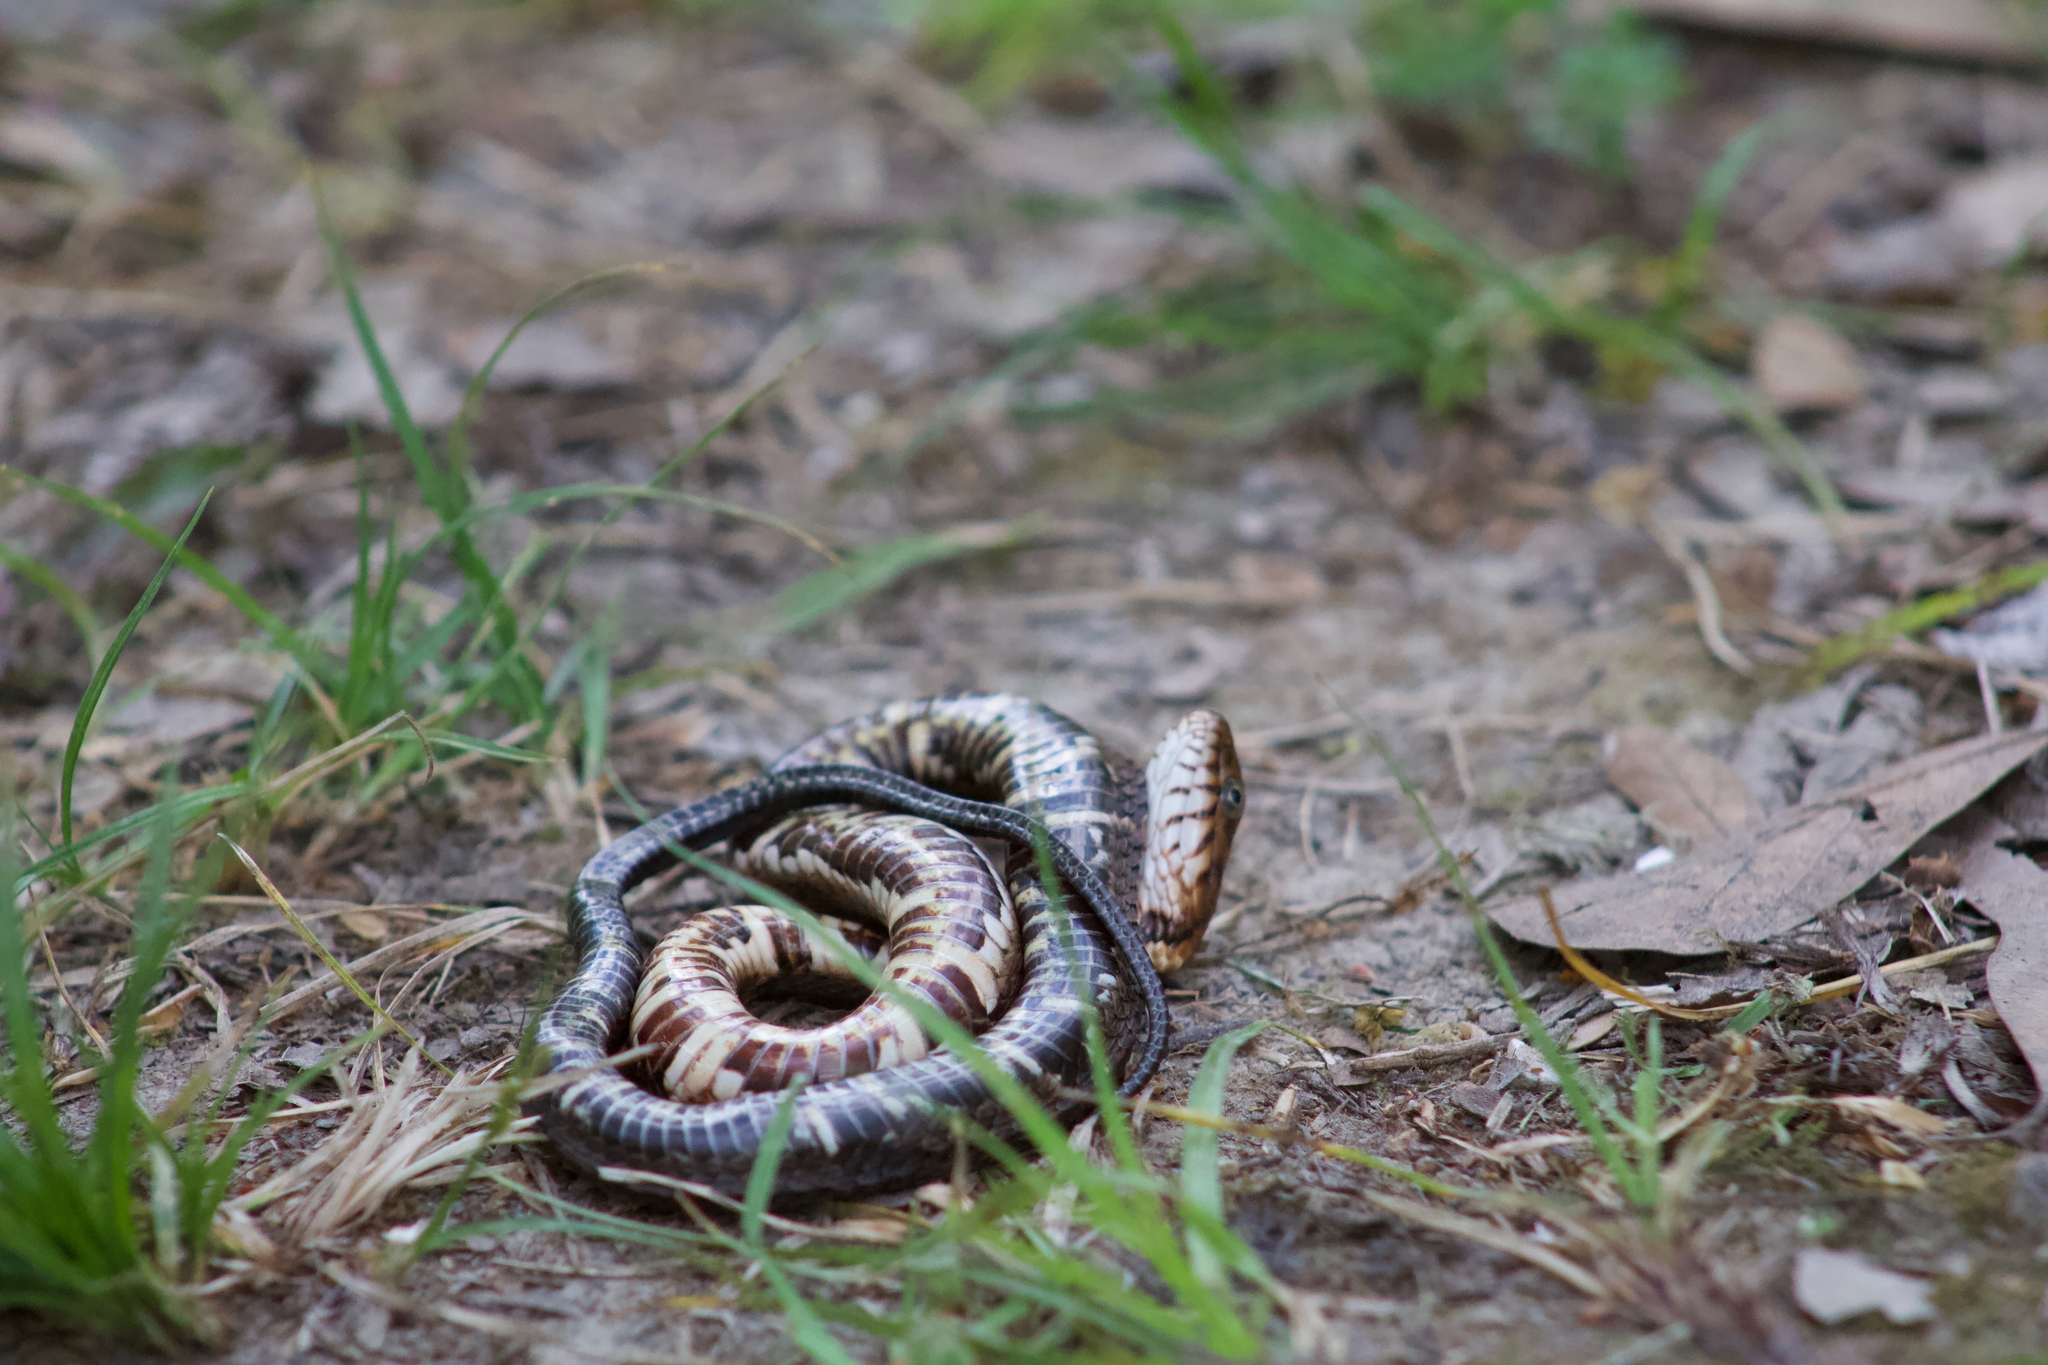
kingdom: Animalia
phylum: Chordata
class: Squamata
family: Colubridae
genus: Nerodia
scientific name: Nerodia fasciata
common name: Southern water snake
